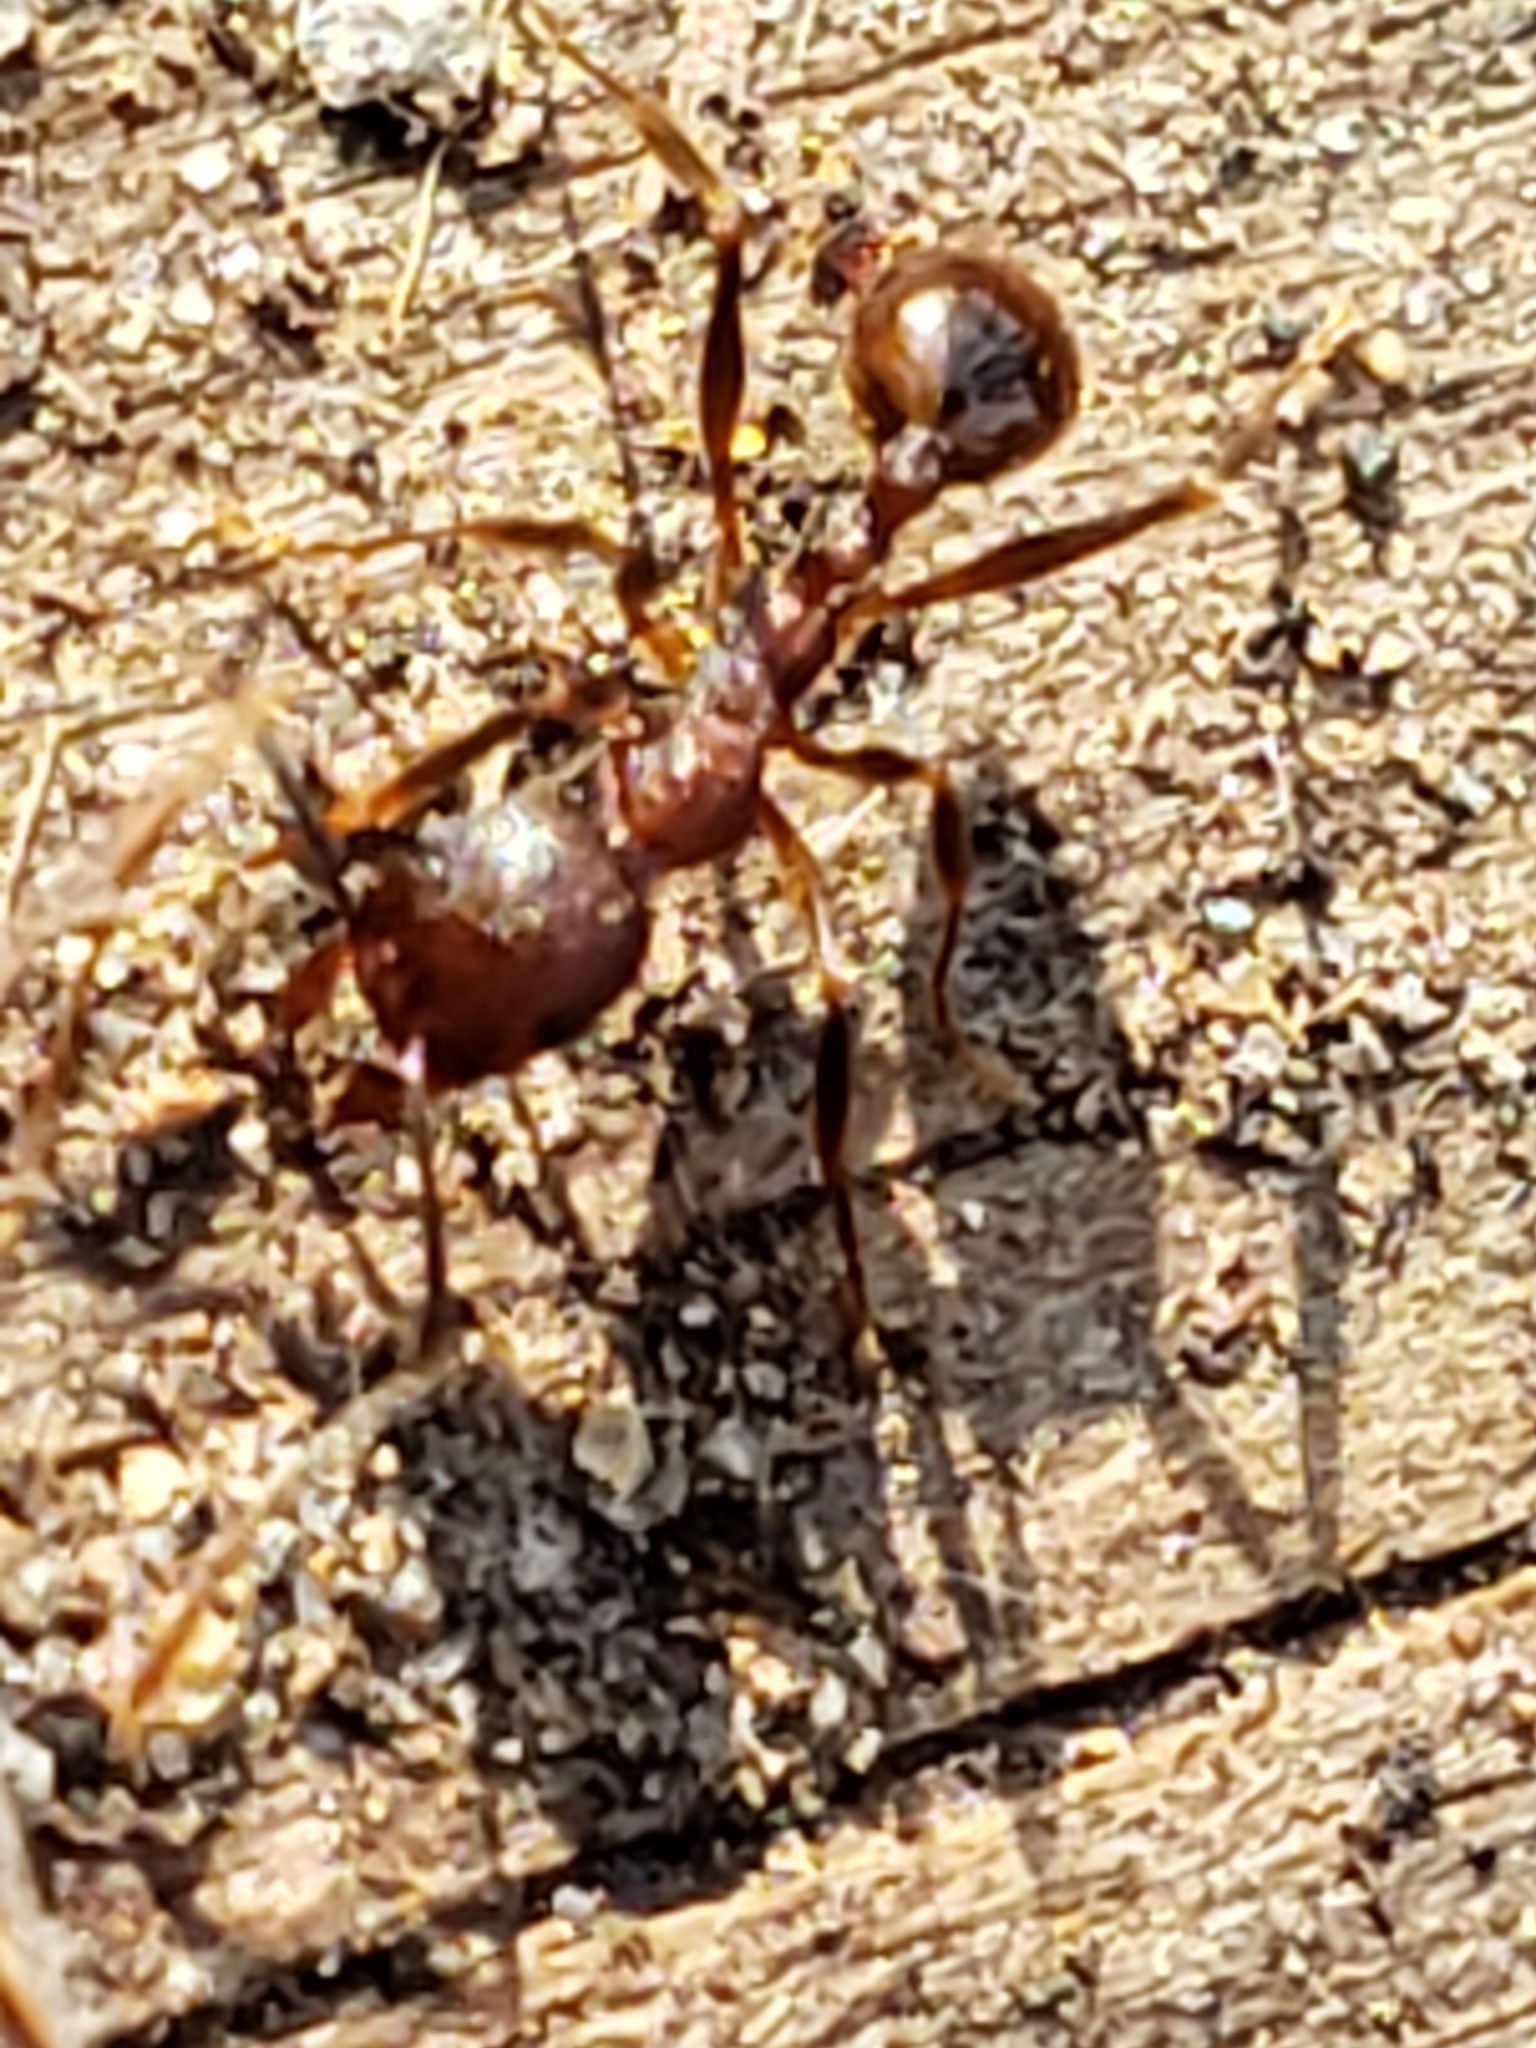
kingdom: Animalia
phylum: Arthropoda
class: Insecta
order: Hymenoptera
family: Formicidae
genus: Aphaenogaster
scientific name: Aphaenogaster fulva
